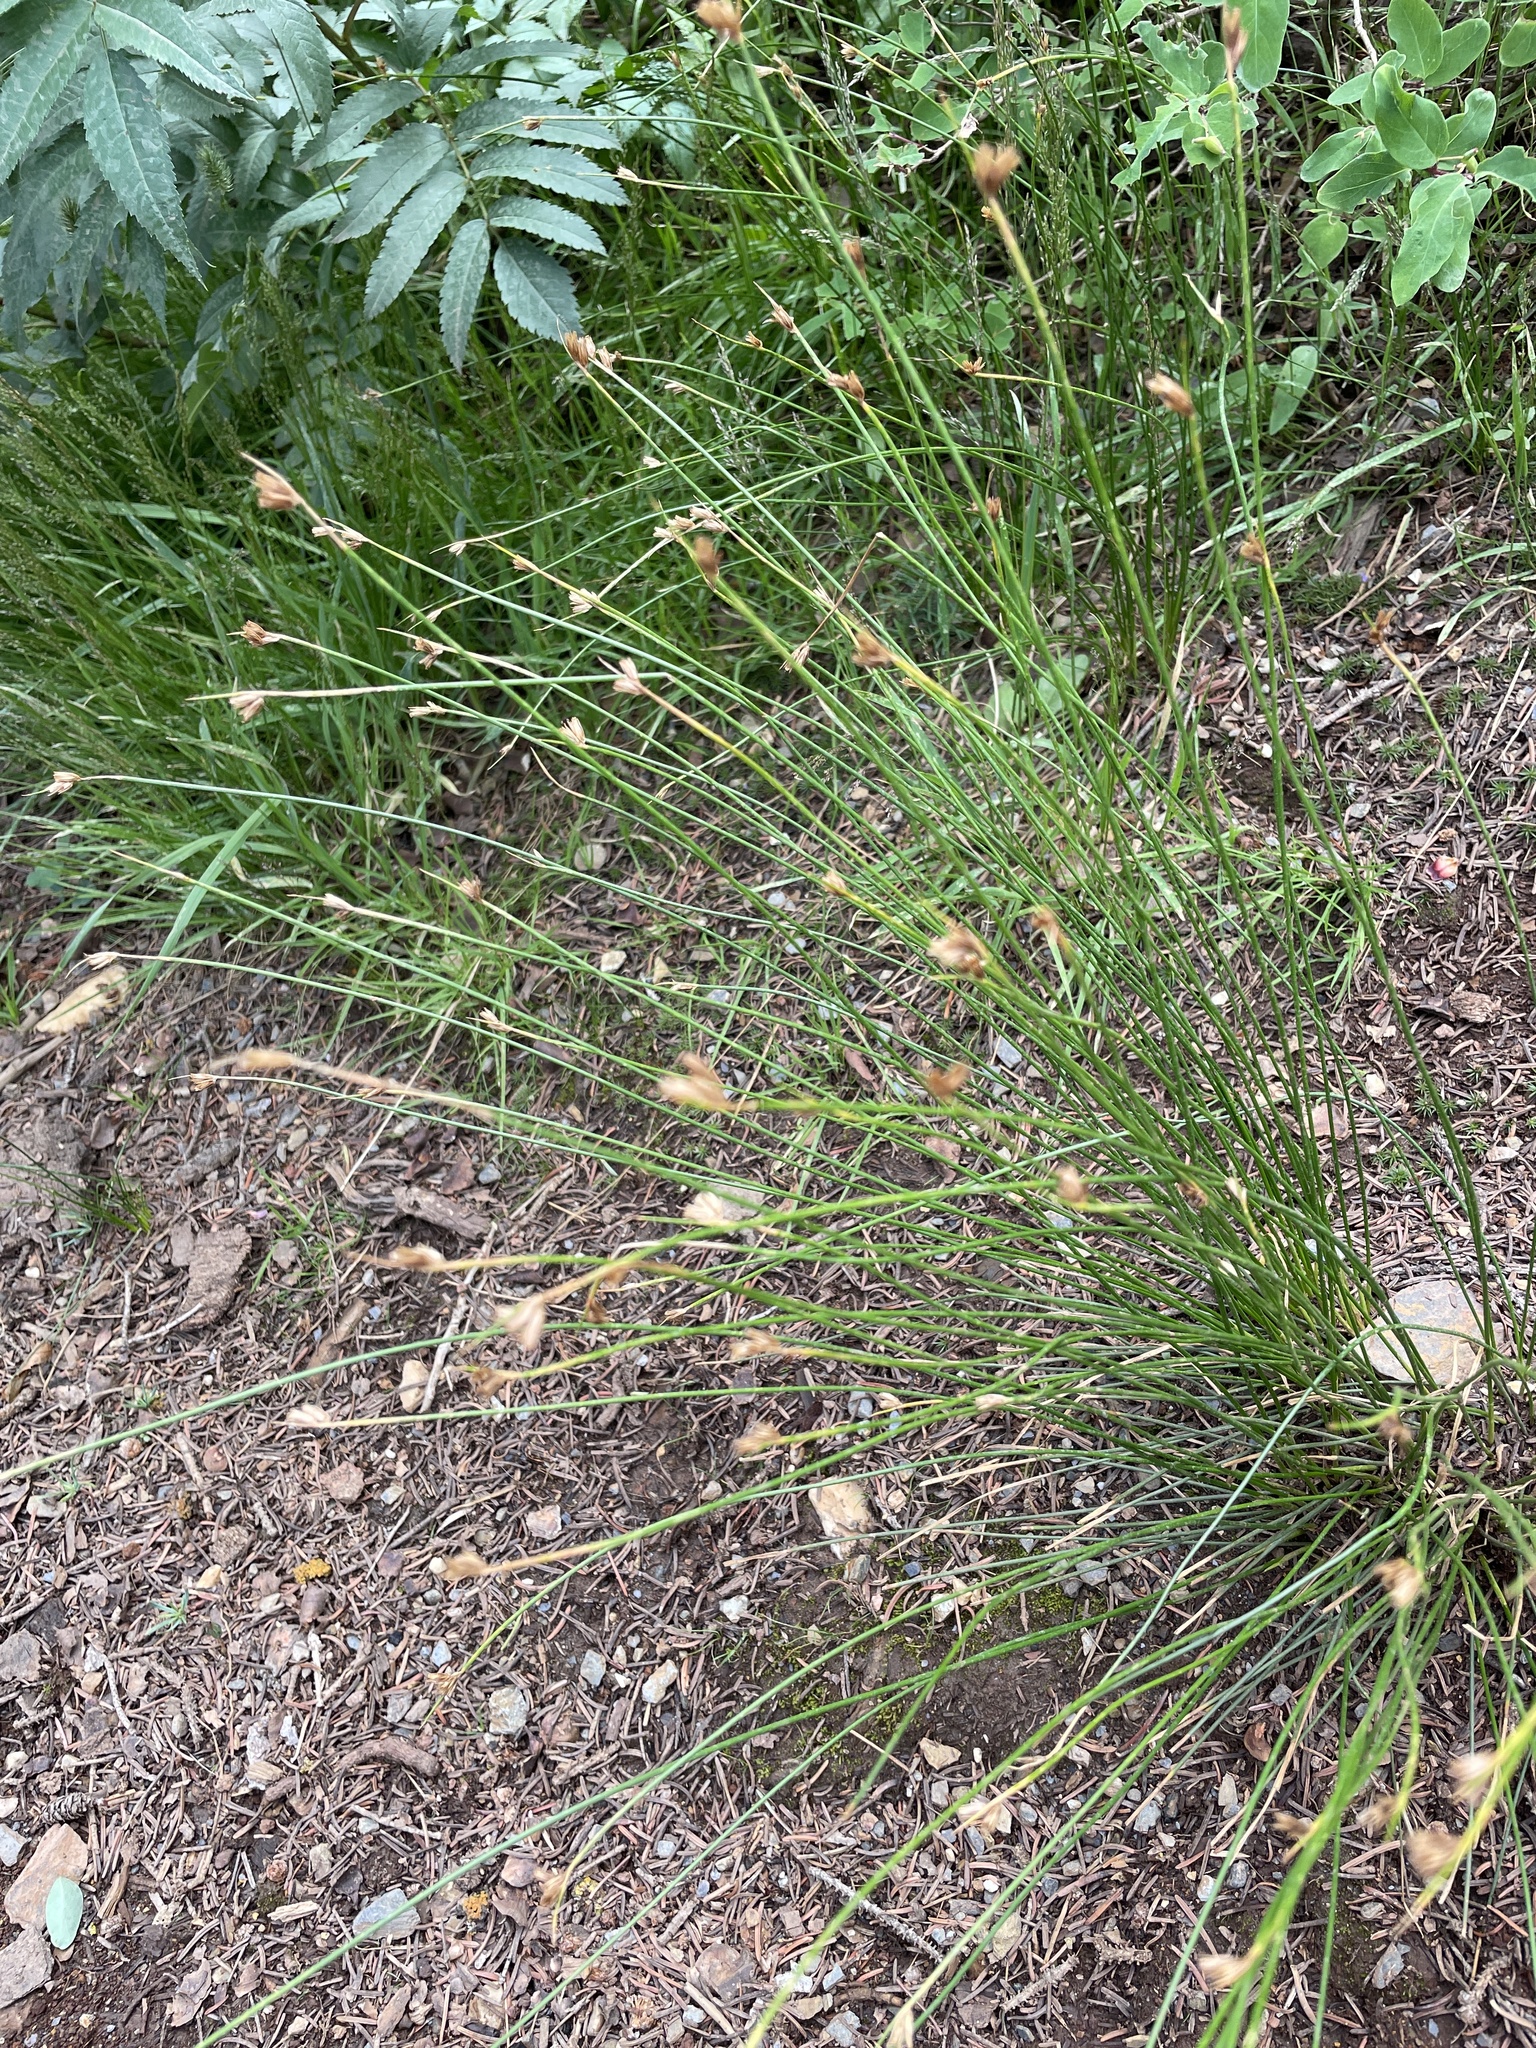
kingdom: Plantae
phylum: Tracheophyta
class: Liliopsida
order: Poales
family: Juncaceae
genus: Juncus
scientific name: Juncus drummondii
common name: Drummond's rush
